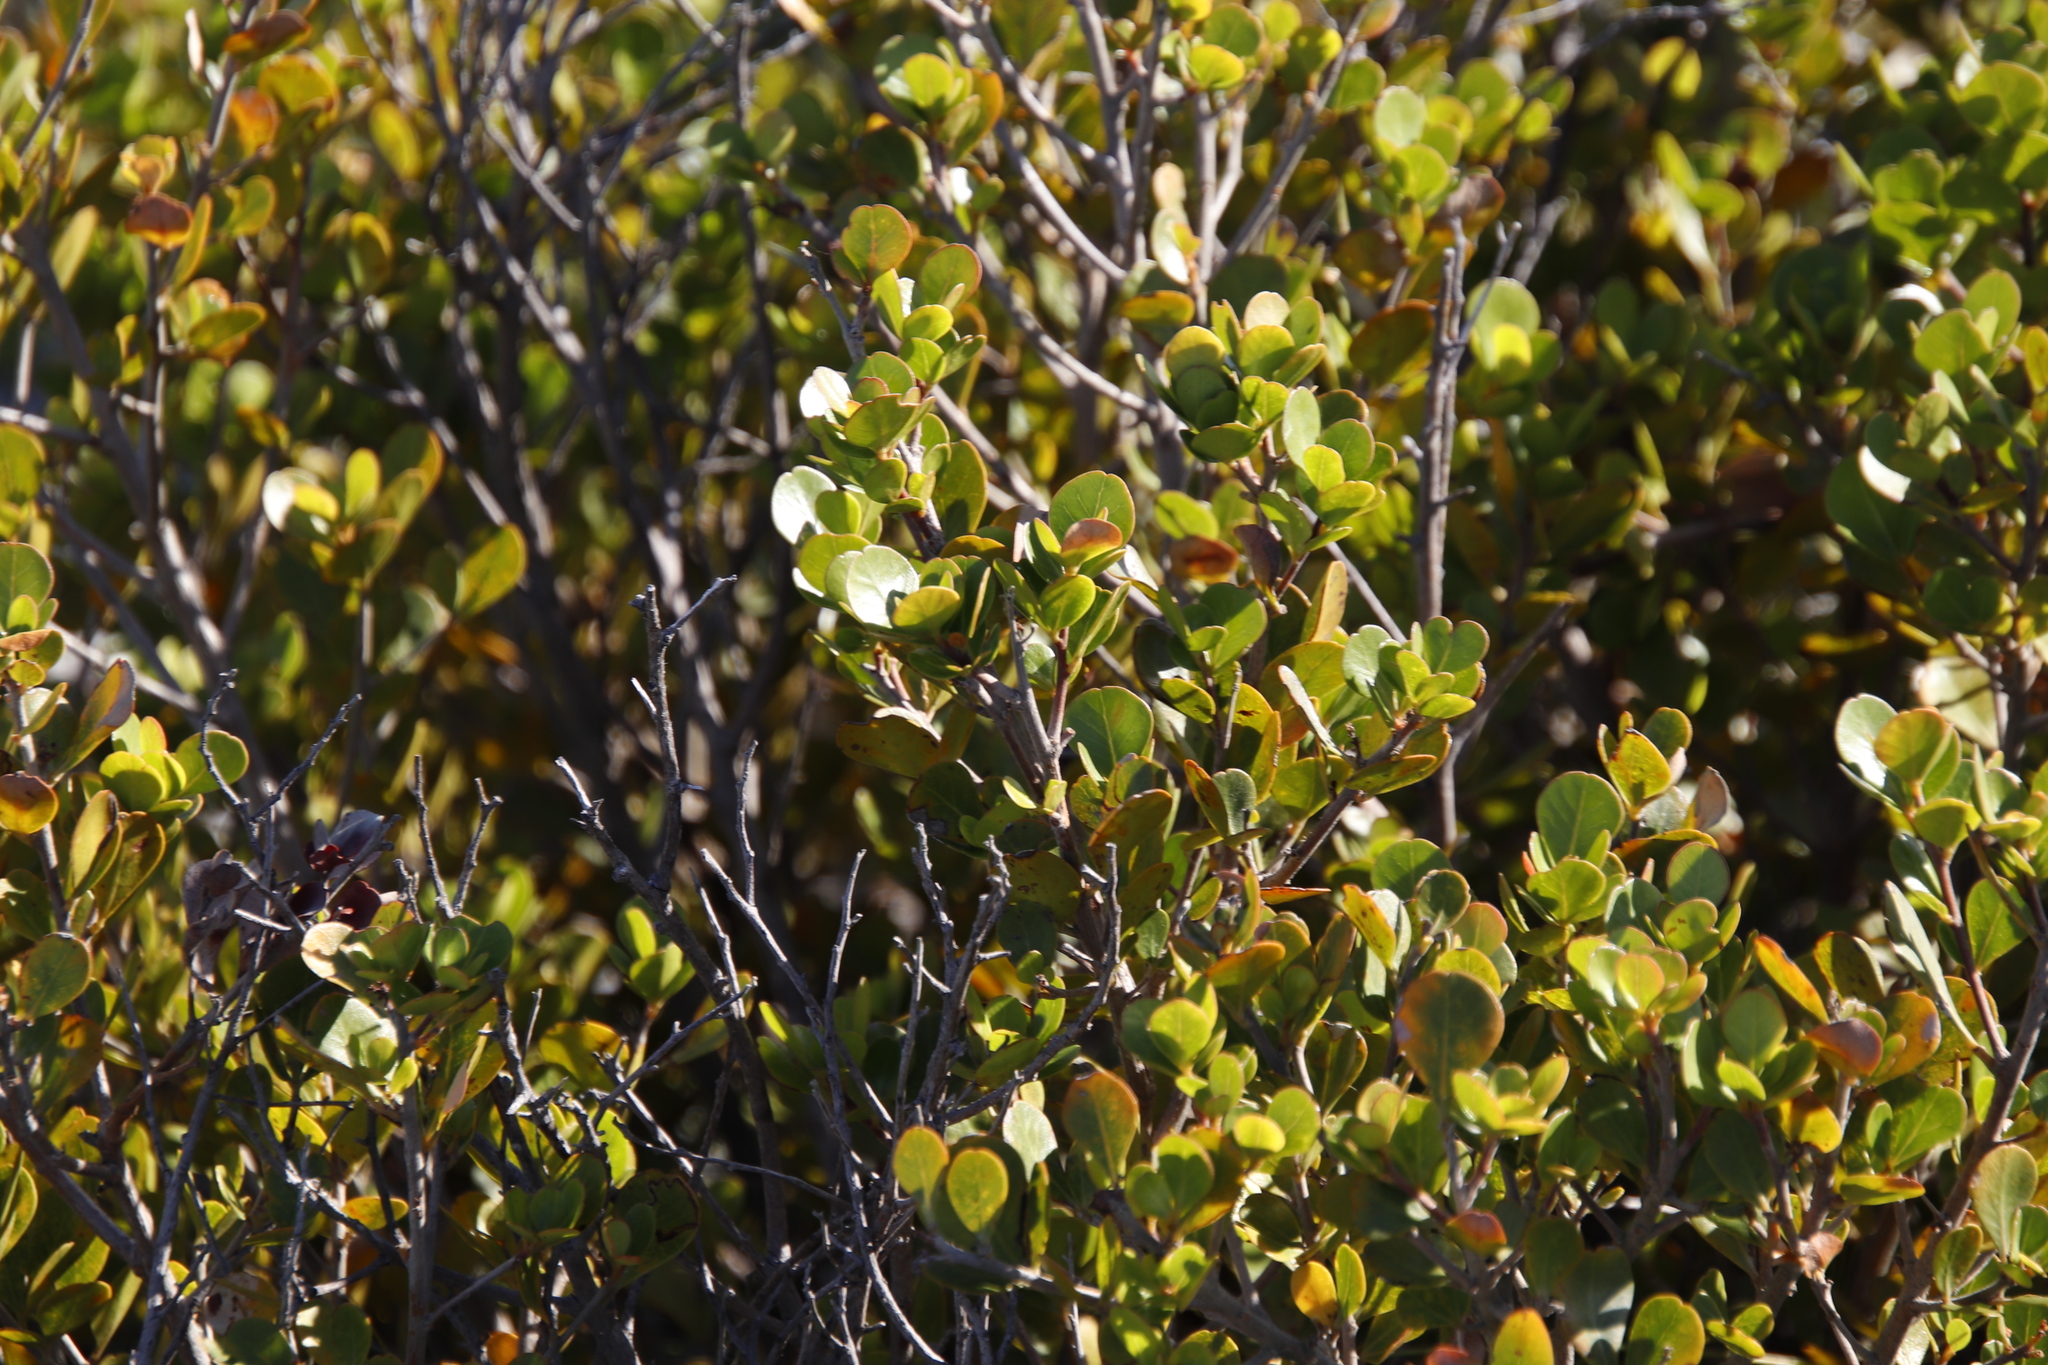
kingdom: Plantae
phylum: Tracheophyta
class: Magnoliopsida
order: Sapindales
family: Anacardiaceae
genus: Searsia
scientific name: Searsia lucida
